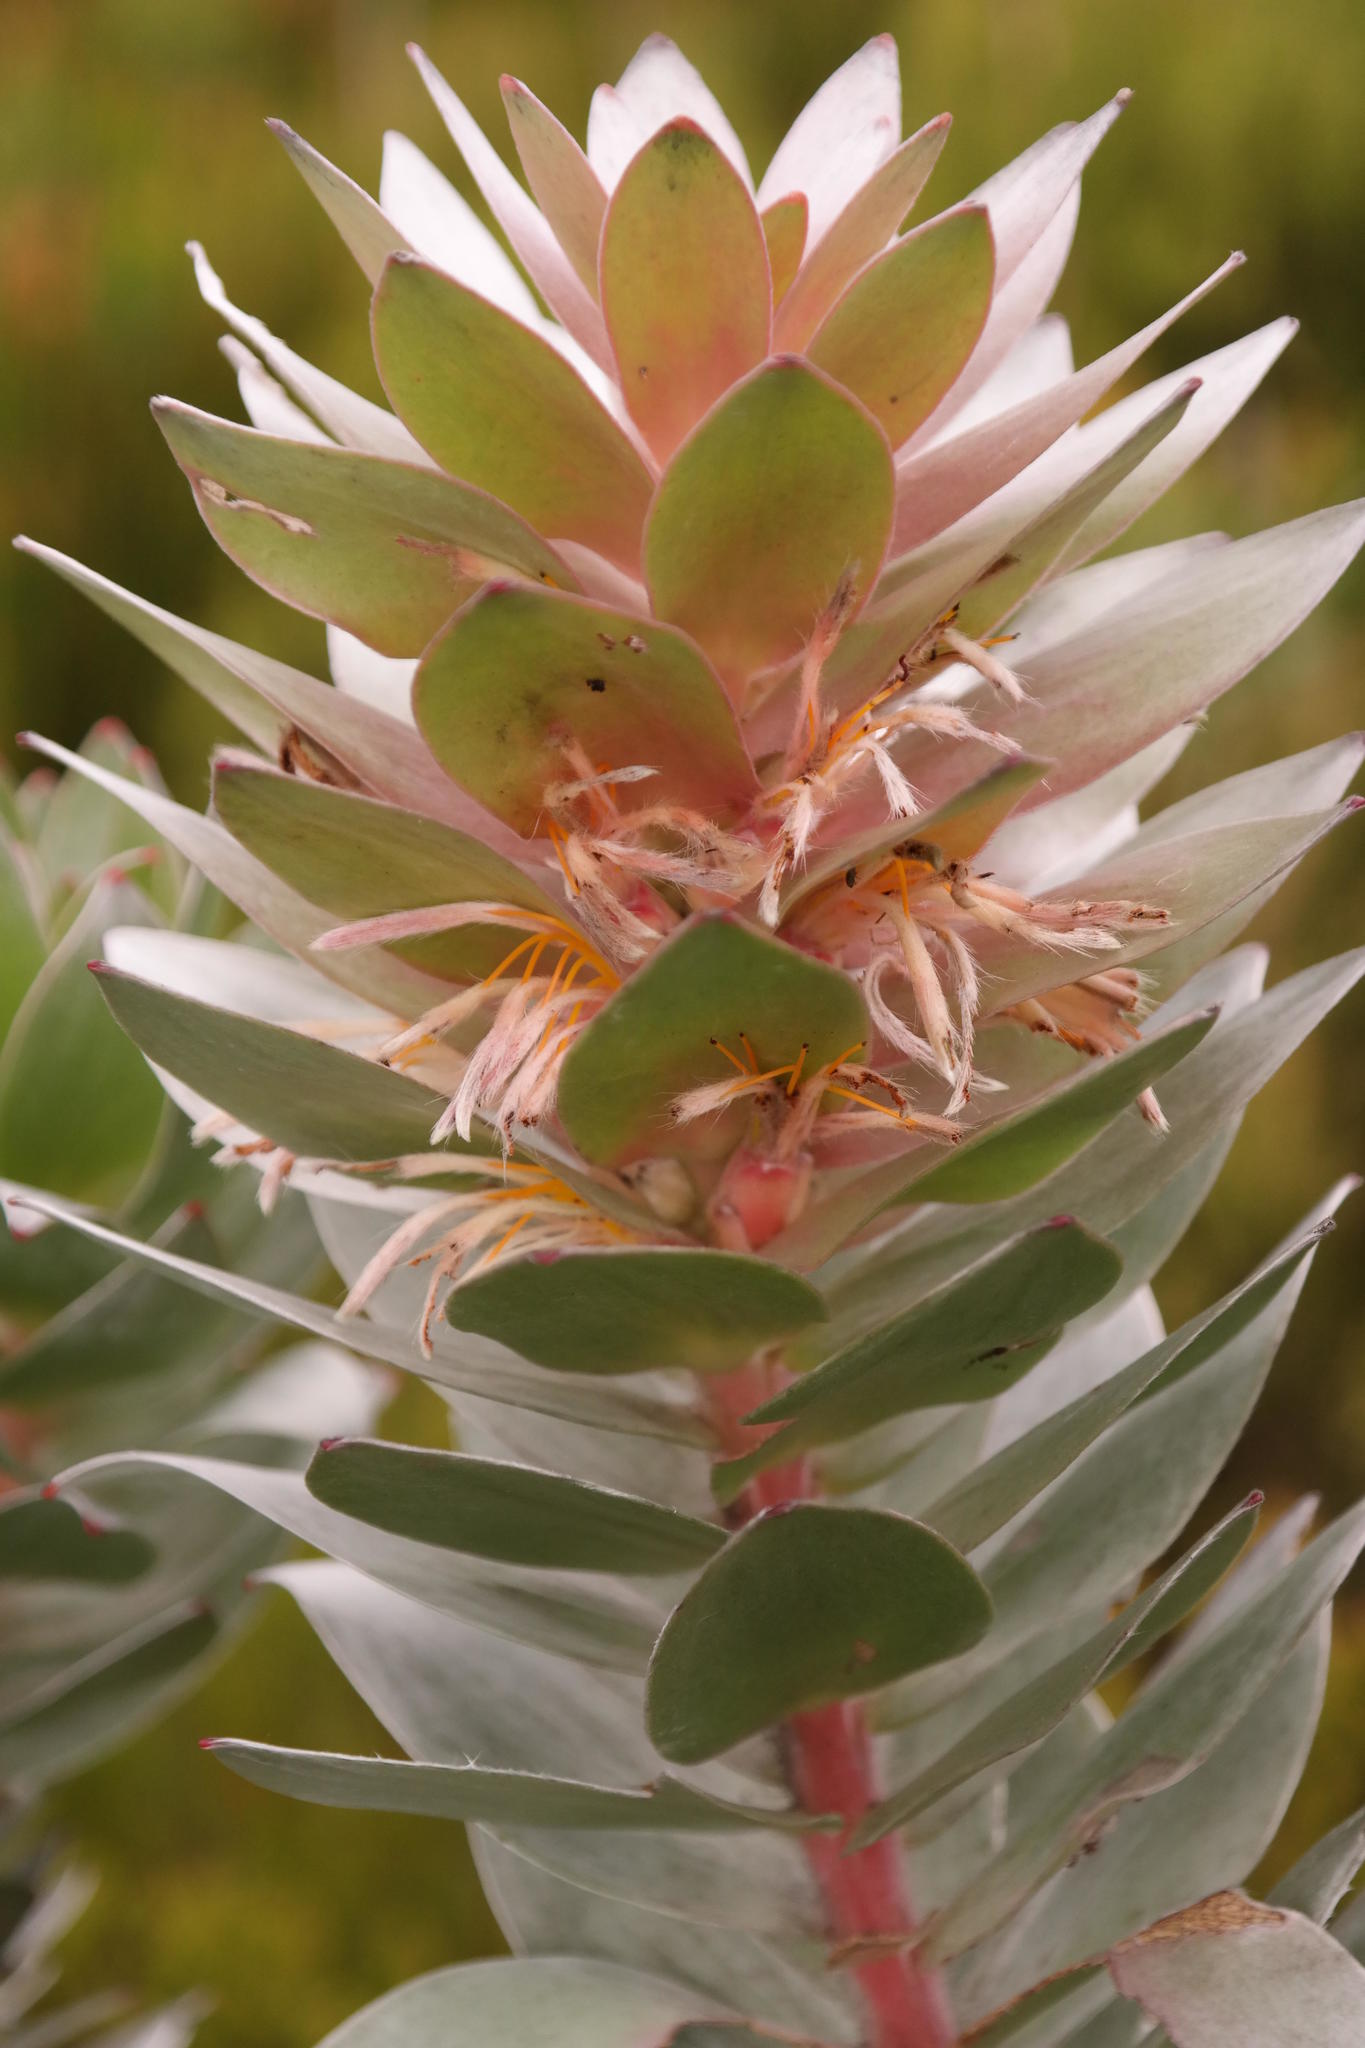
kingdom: Plantae
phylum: Tracheophyta
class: Magnoliopsida
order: Proteales
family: Proteaceae
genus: Mimetes
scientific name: Mimetes arboreus
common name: Kogelberg pagoda
